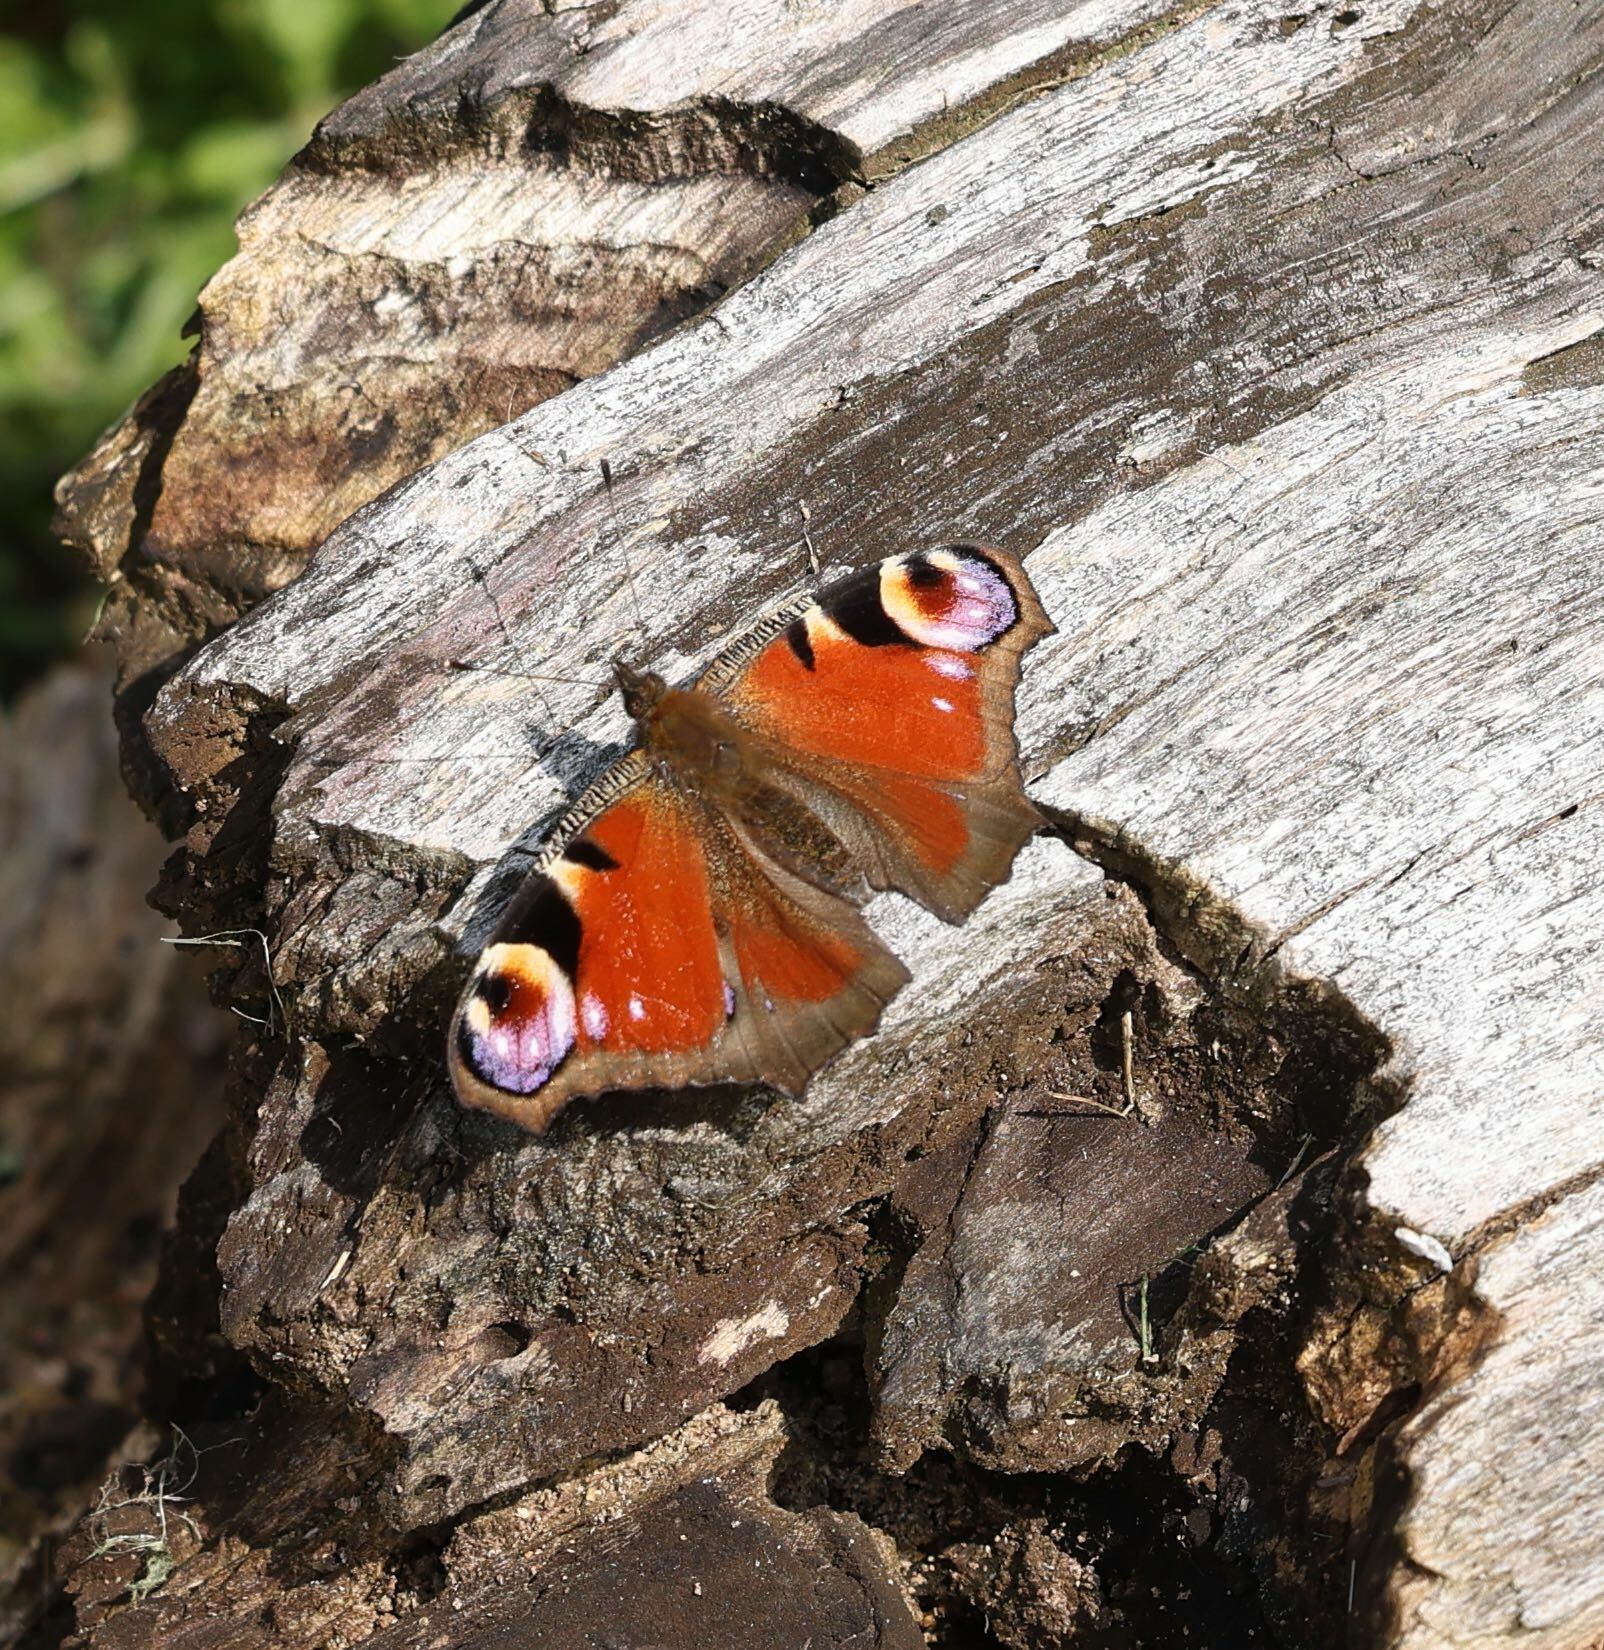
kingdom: Animalia
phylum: Arthropoda
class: Insecta
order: Lepidoptera
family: Nymphalidae
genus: Aglais
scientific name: Aglais io
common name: Peacock
